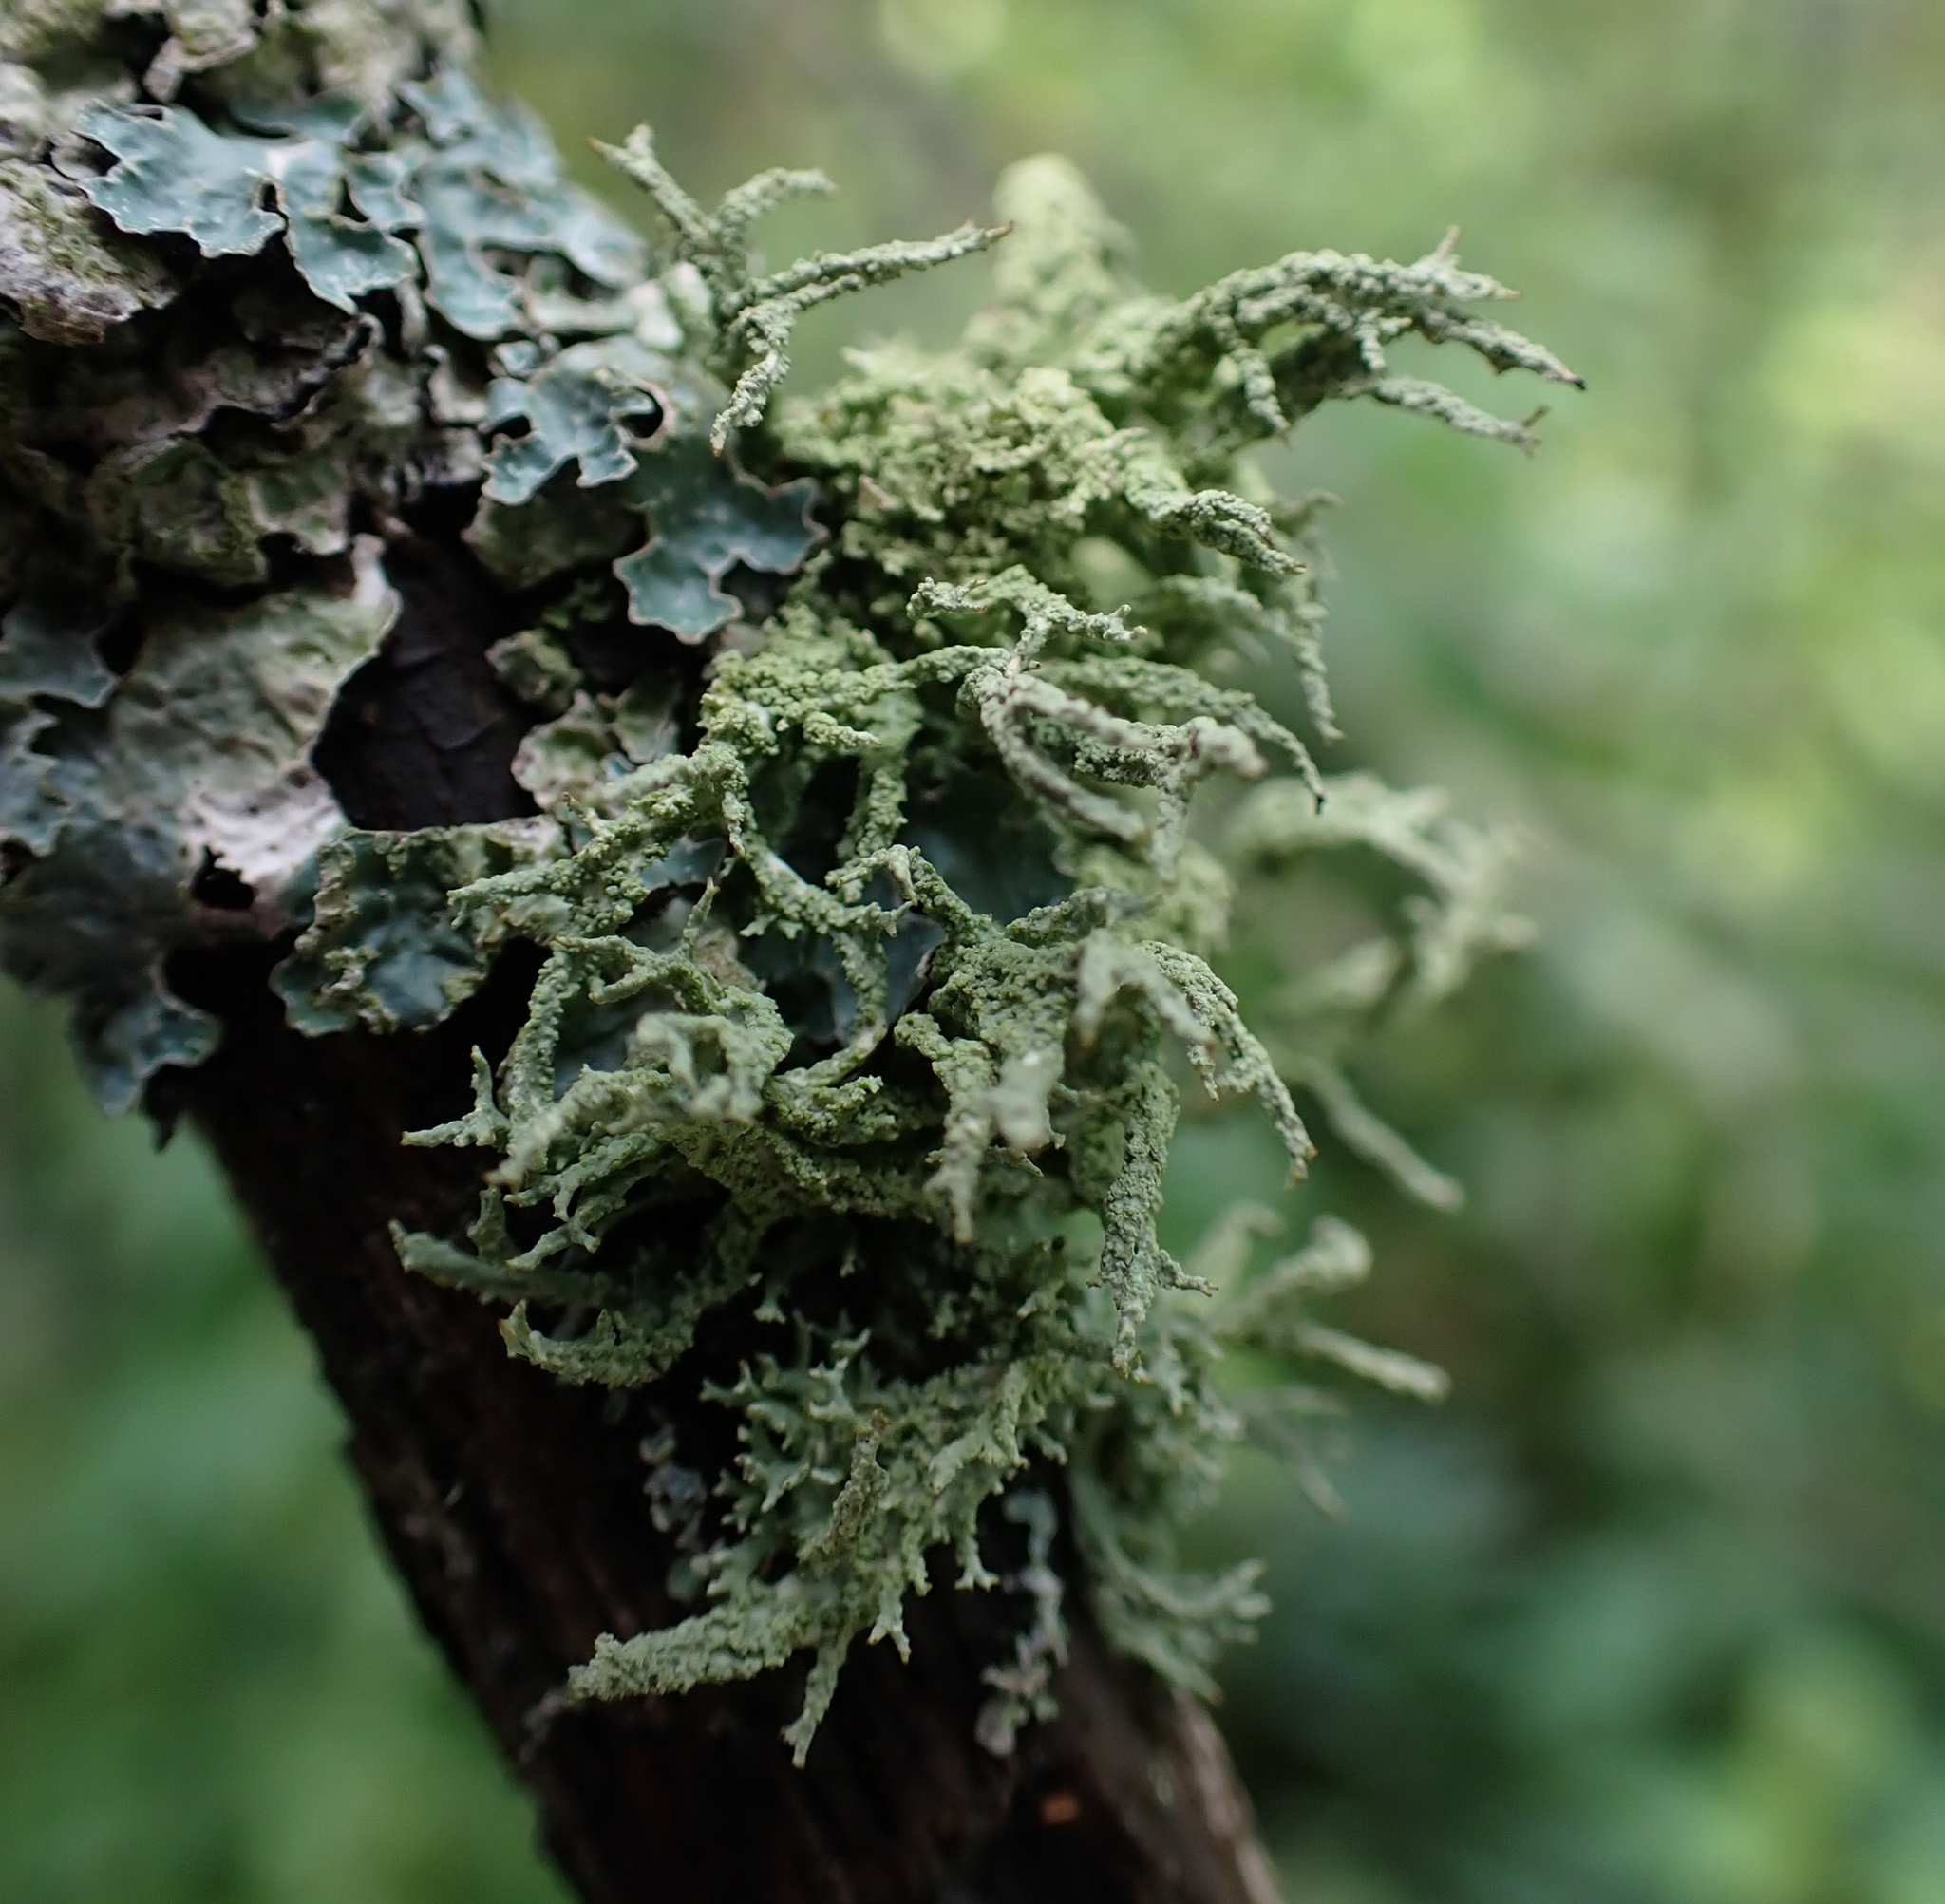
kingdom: Fungi
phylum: Ascomycota
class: Lecanoromycetes
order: Lecanorales
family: Parmeliaceae
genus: Evernia
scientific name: Evernia mesomorpha
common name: Boreal oak moss lichen
